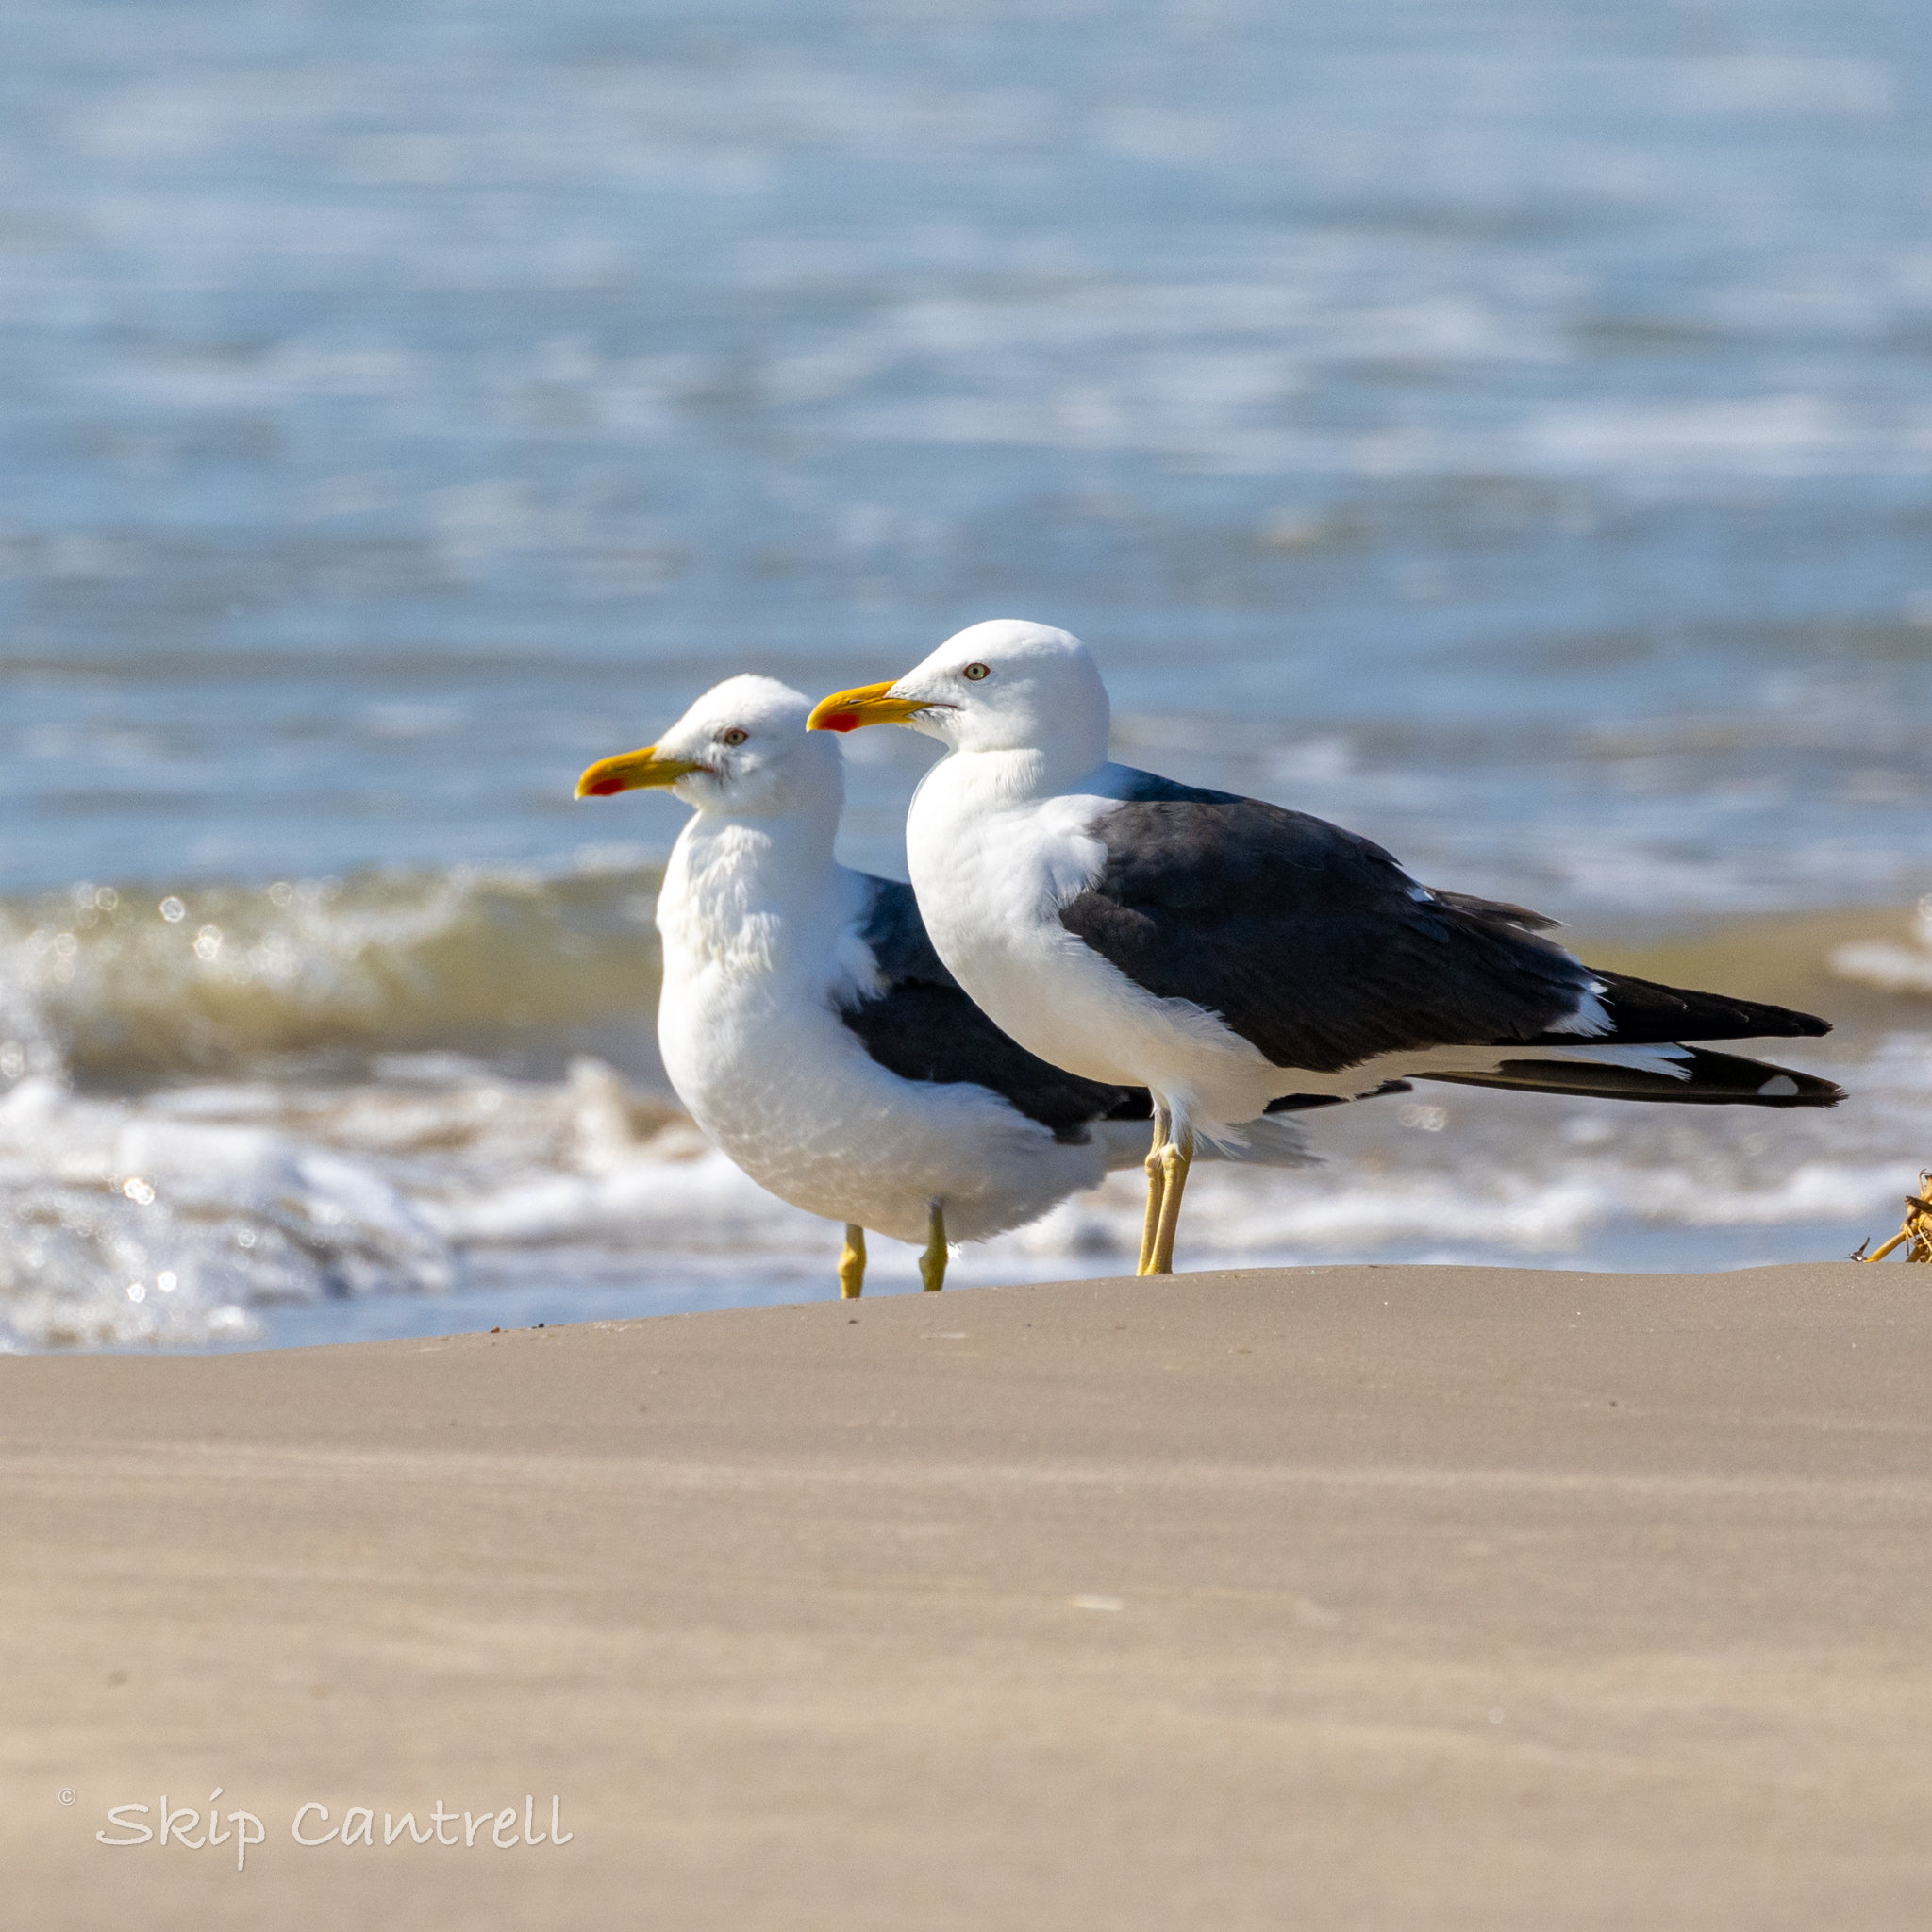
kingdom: Animalia
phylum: Chordata
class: Aves
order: Charadriiformes
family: Laridae
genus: Larus
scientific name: Larus fuscus
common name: Lesser black-backed gull
